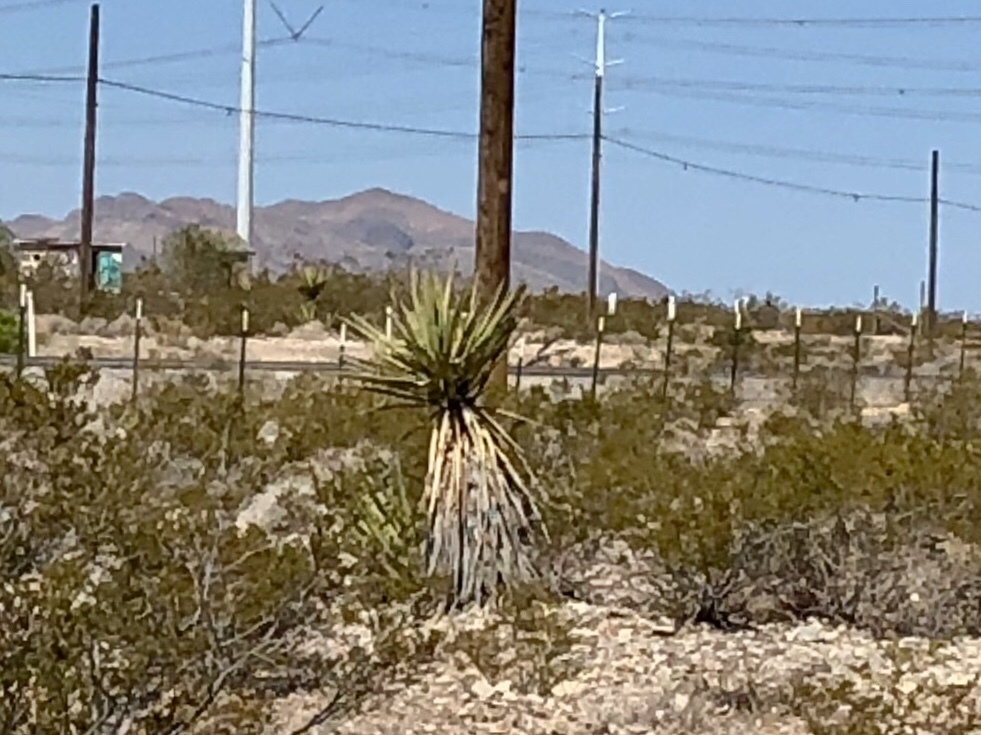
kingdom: Plantae
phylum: Tracheophyta
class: Liliopsida
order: Asparagales
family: Asparagaceae
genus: Yucca
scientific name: Yucca schidigera
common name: Mojave yucca
